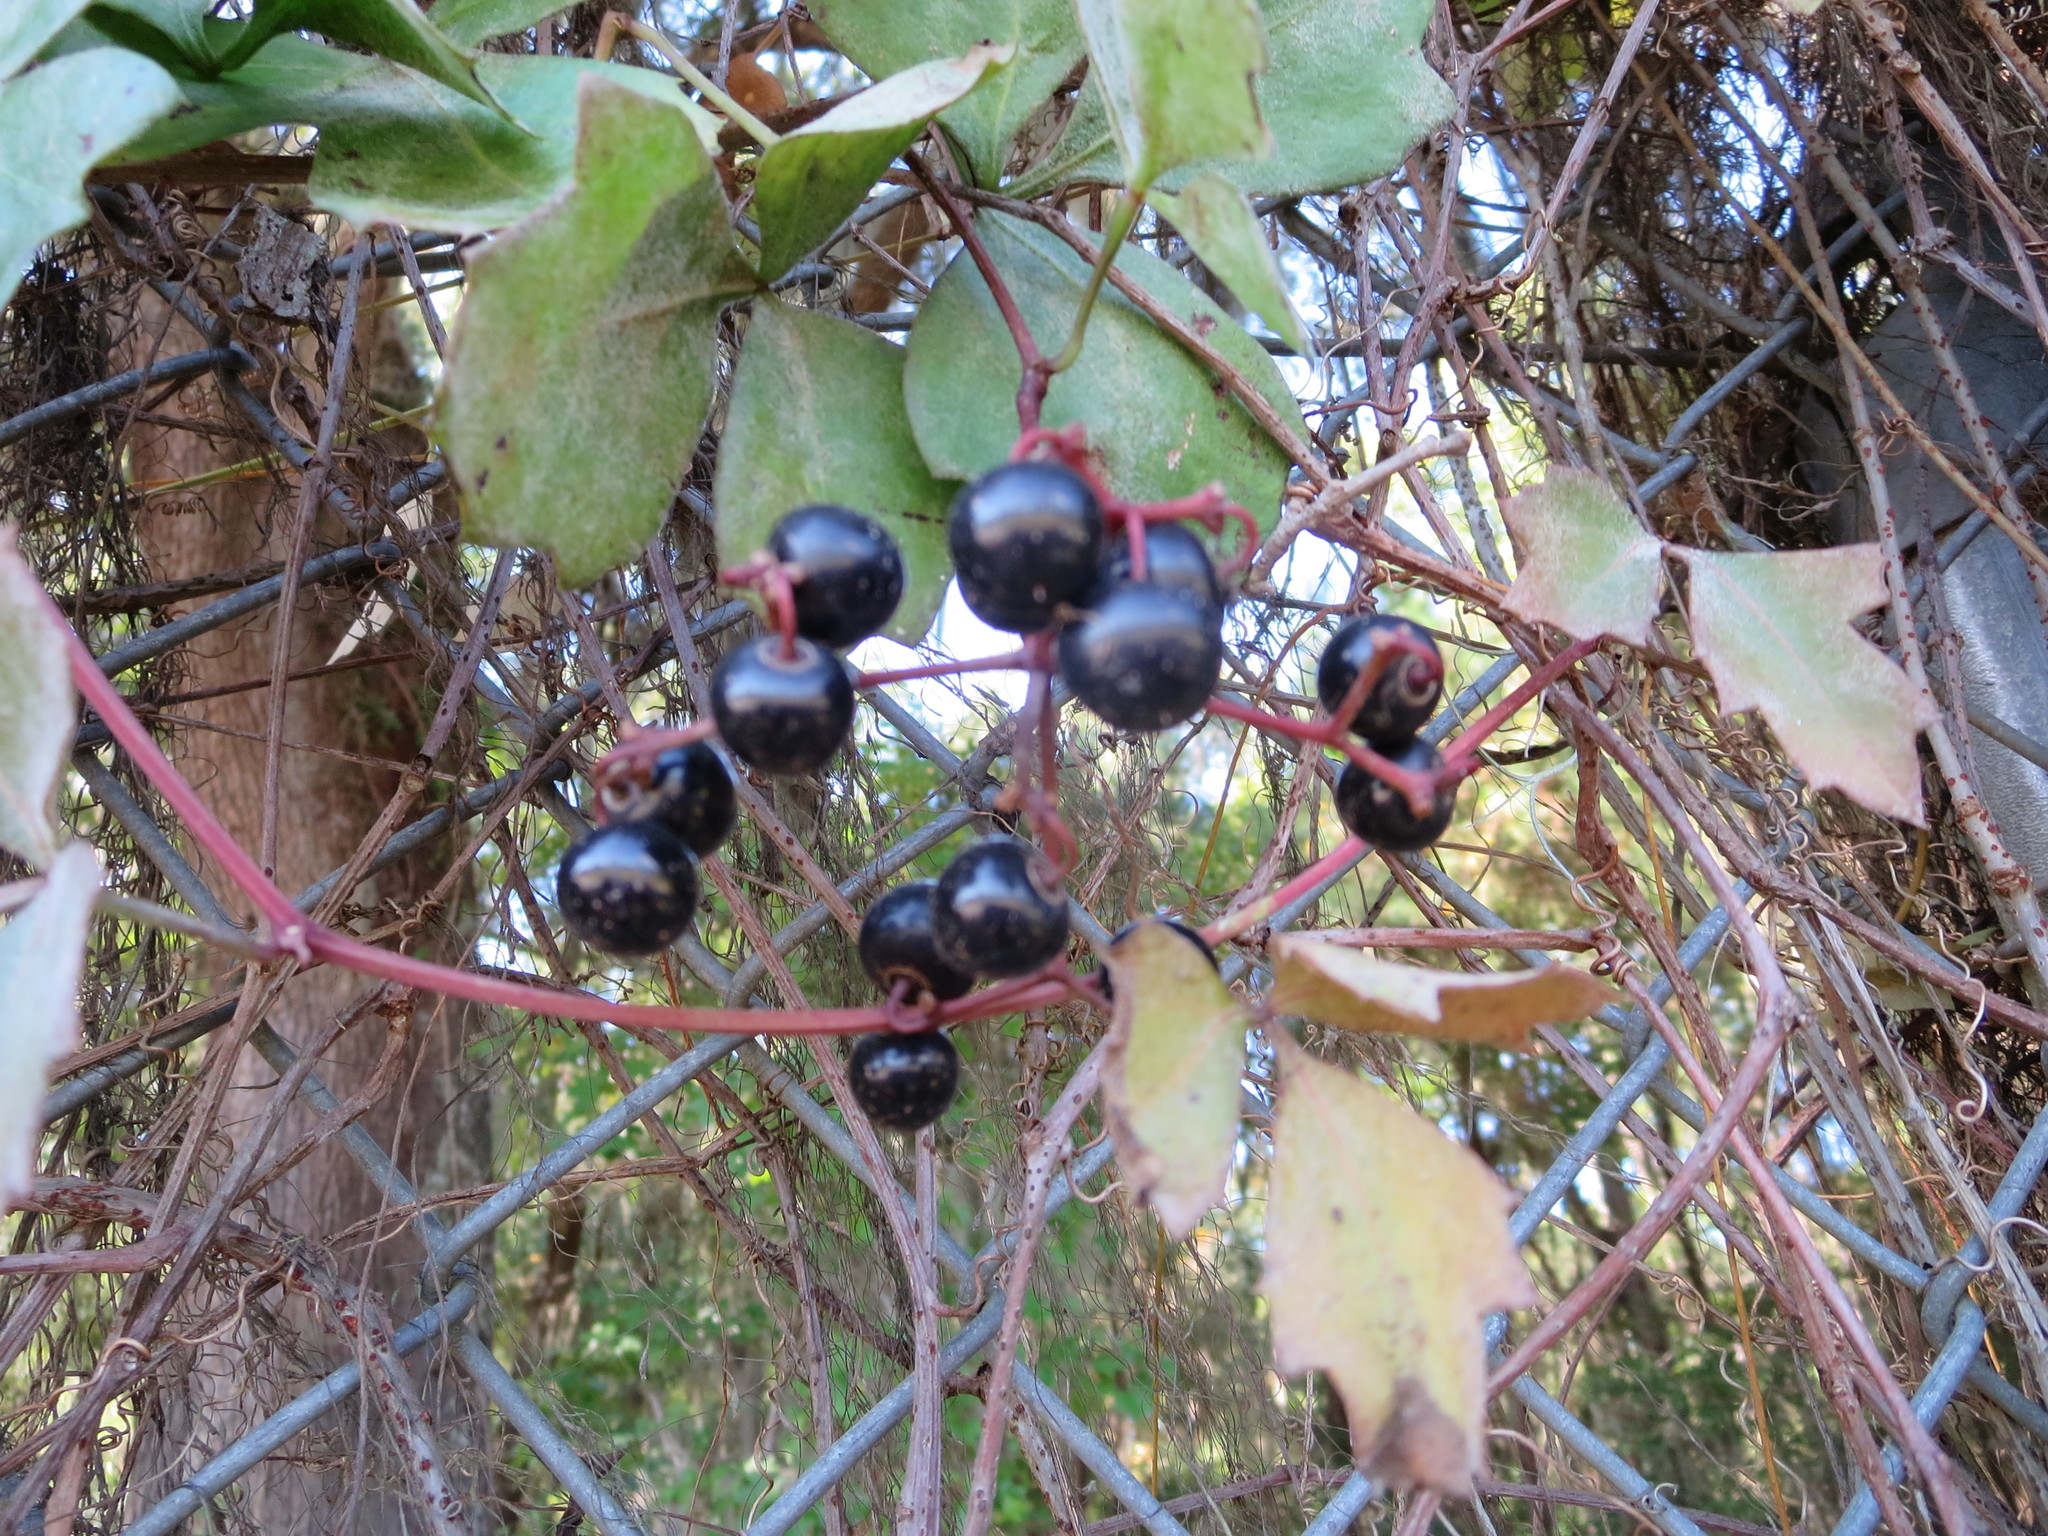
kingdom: Plantae
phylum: Tracheophyta
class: Magnoliopsida
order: Vitales
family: Vitaceae
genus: Cissus
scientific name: Cissus trifoliata
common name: Vine-sorrel
